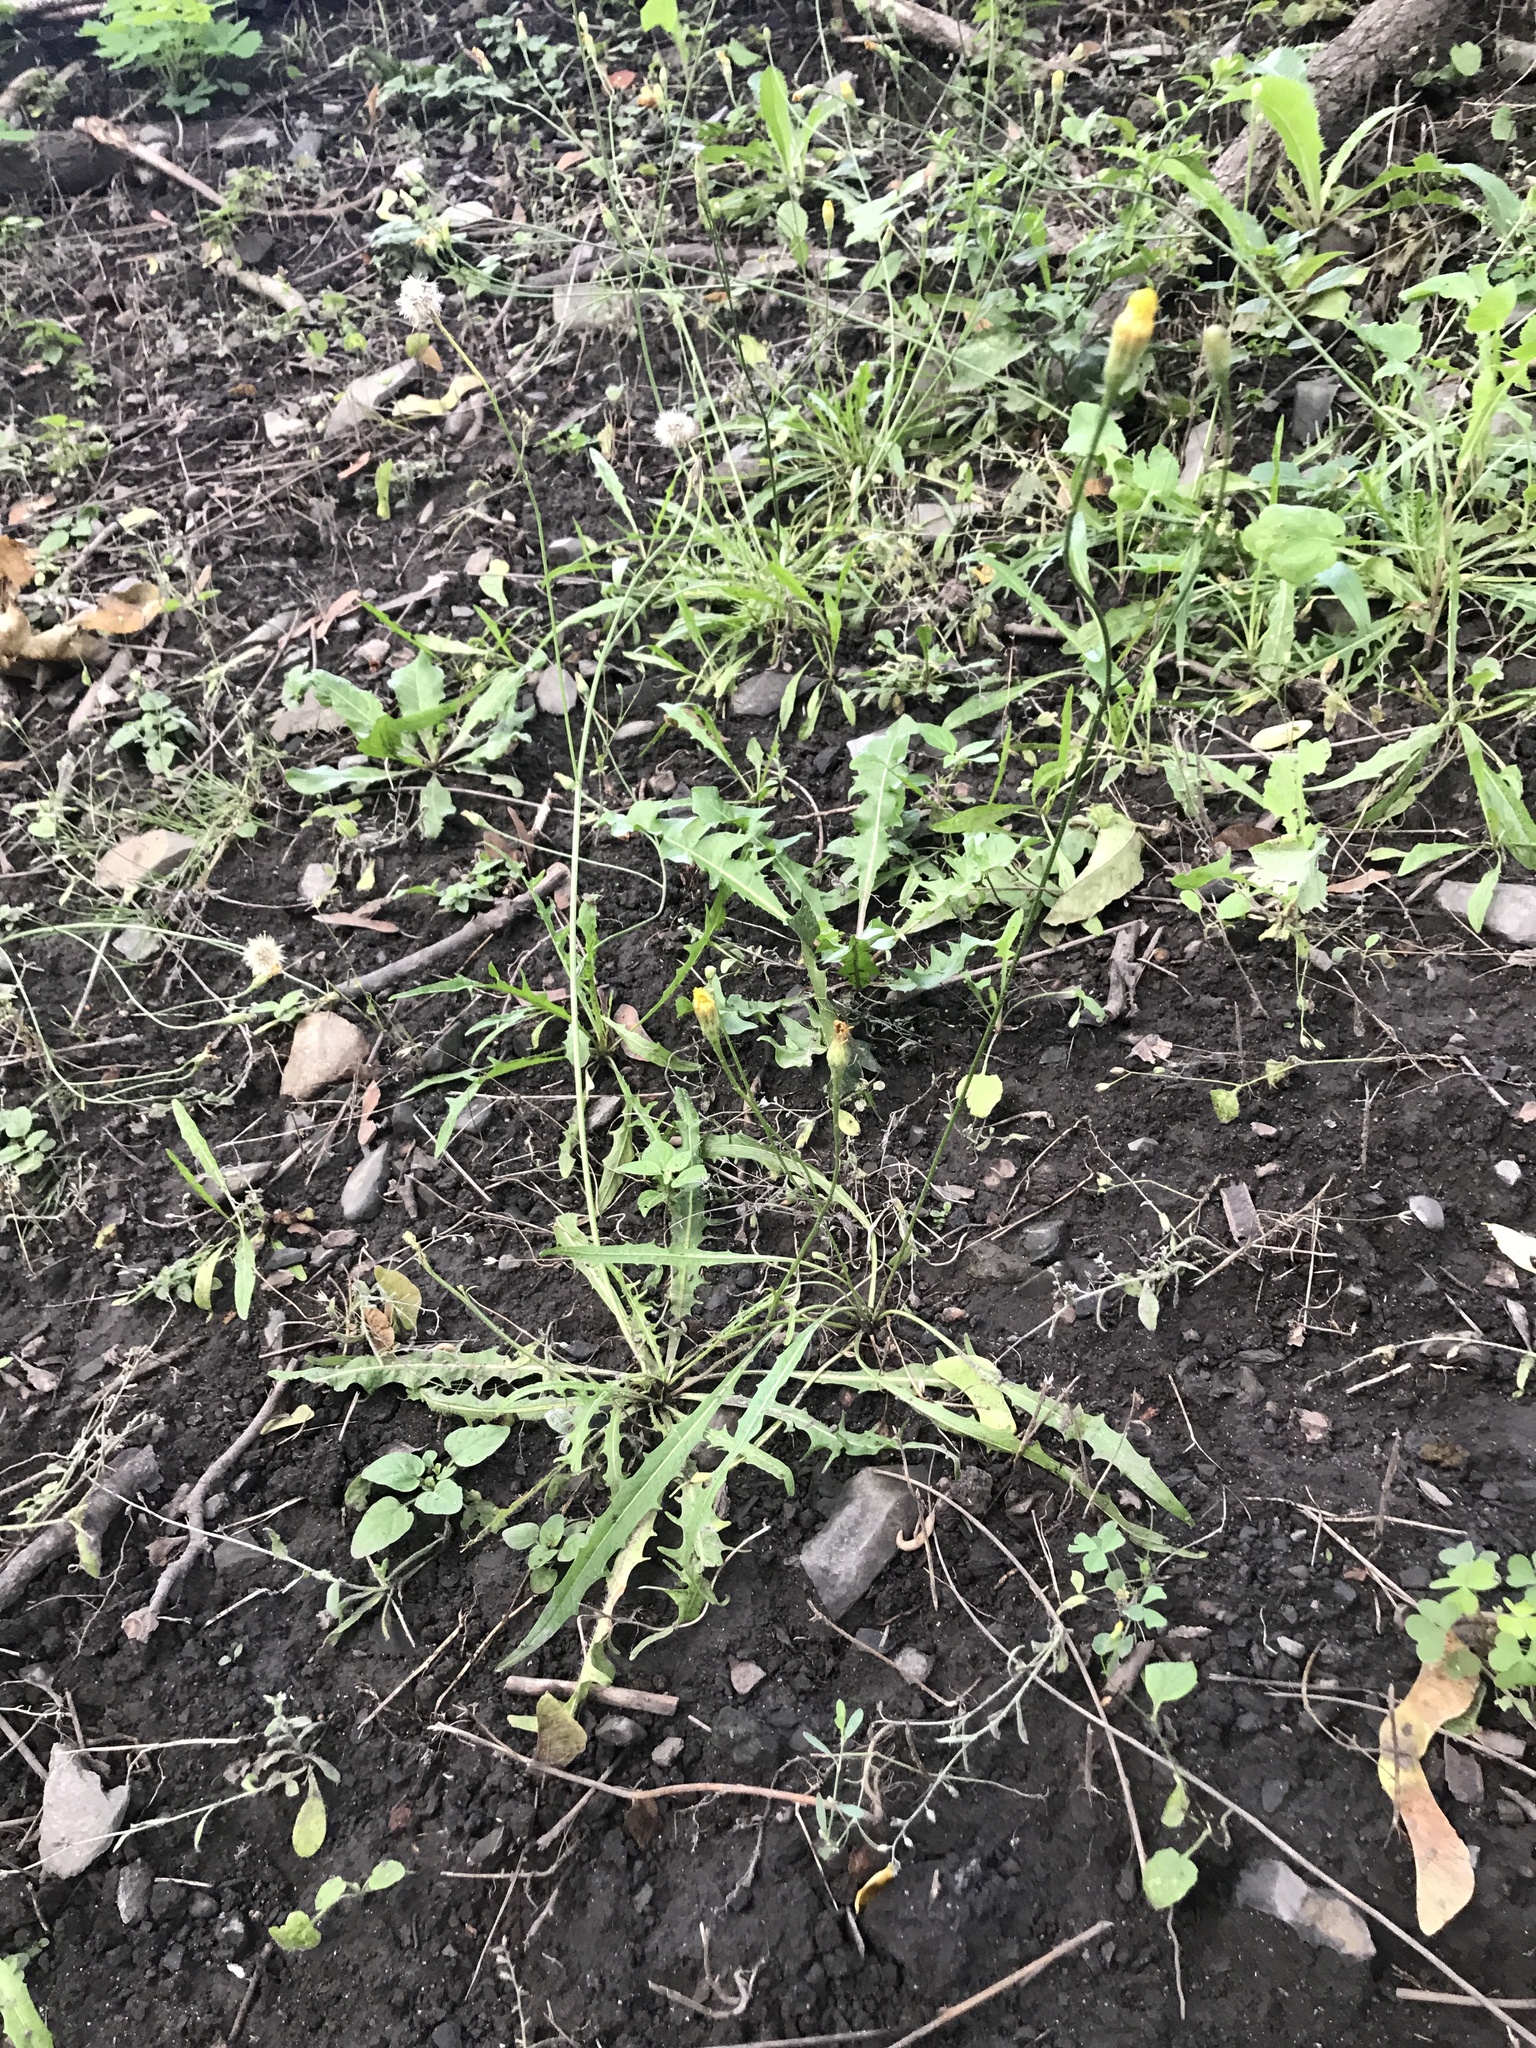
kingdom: Plantae
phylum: Tracheophyta
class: Magnoliopsida
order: Asterales
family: Asteraceae
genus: Scorzoneroides
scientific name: Scorzoneroides autumnalis
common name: Autumn hawkbit
